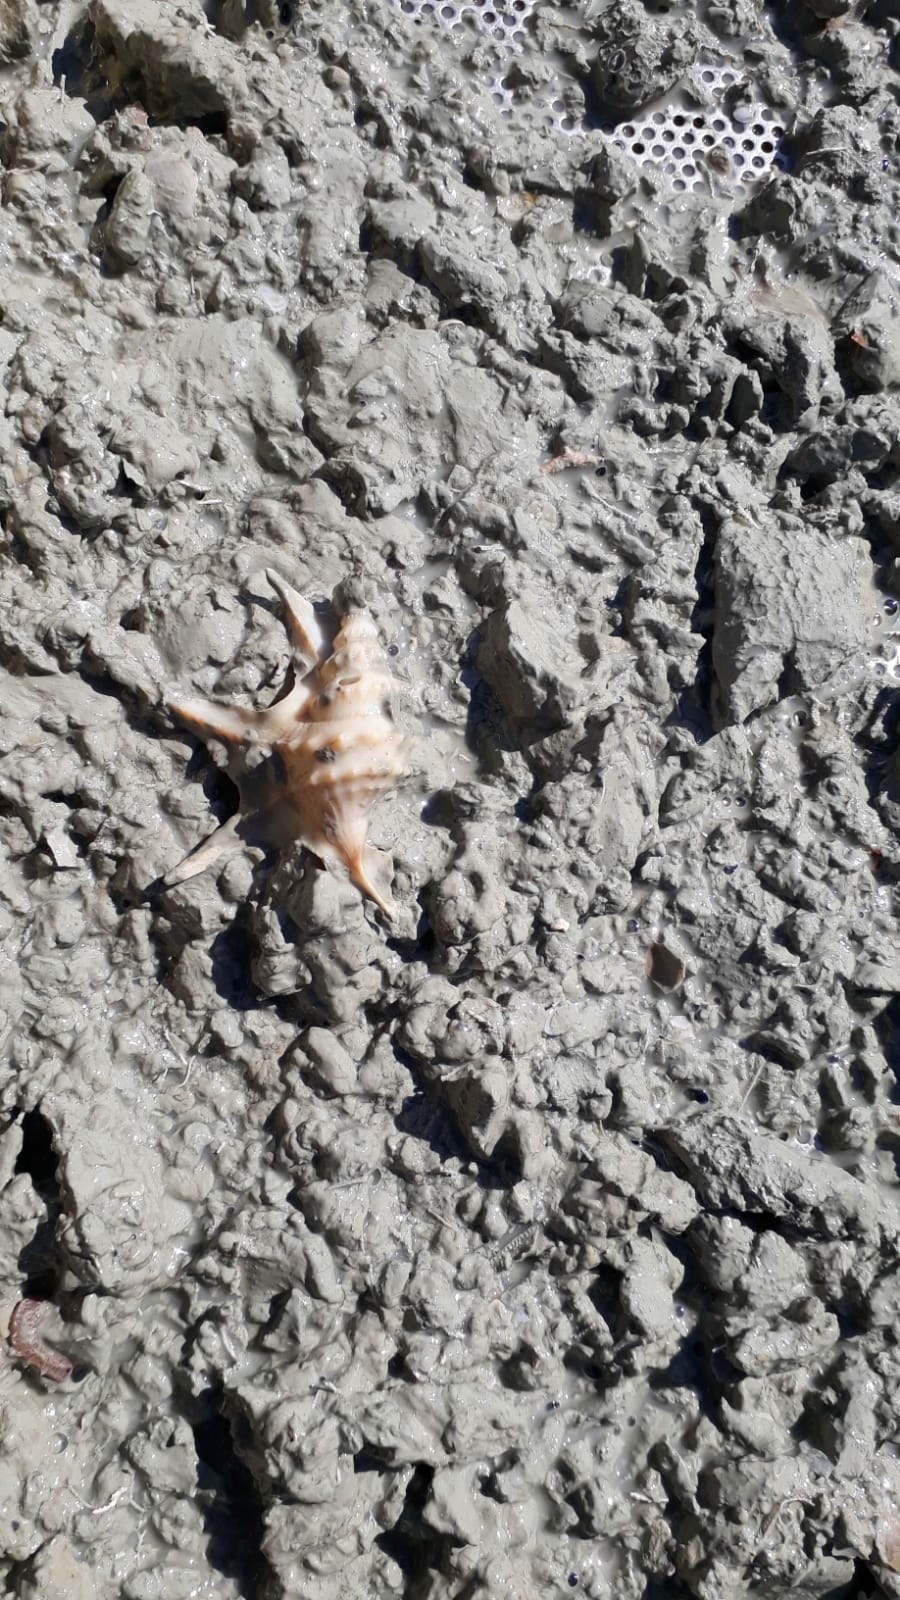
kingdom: Animalia
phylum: Mollusca
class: Gastropoda
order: Littorinimorpha
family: Aporrhaidae
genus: Aporrhais
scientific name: Aporrhais pespelecani
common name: Common pelican’s foot
